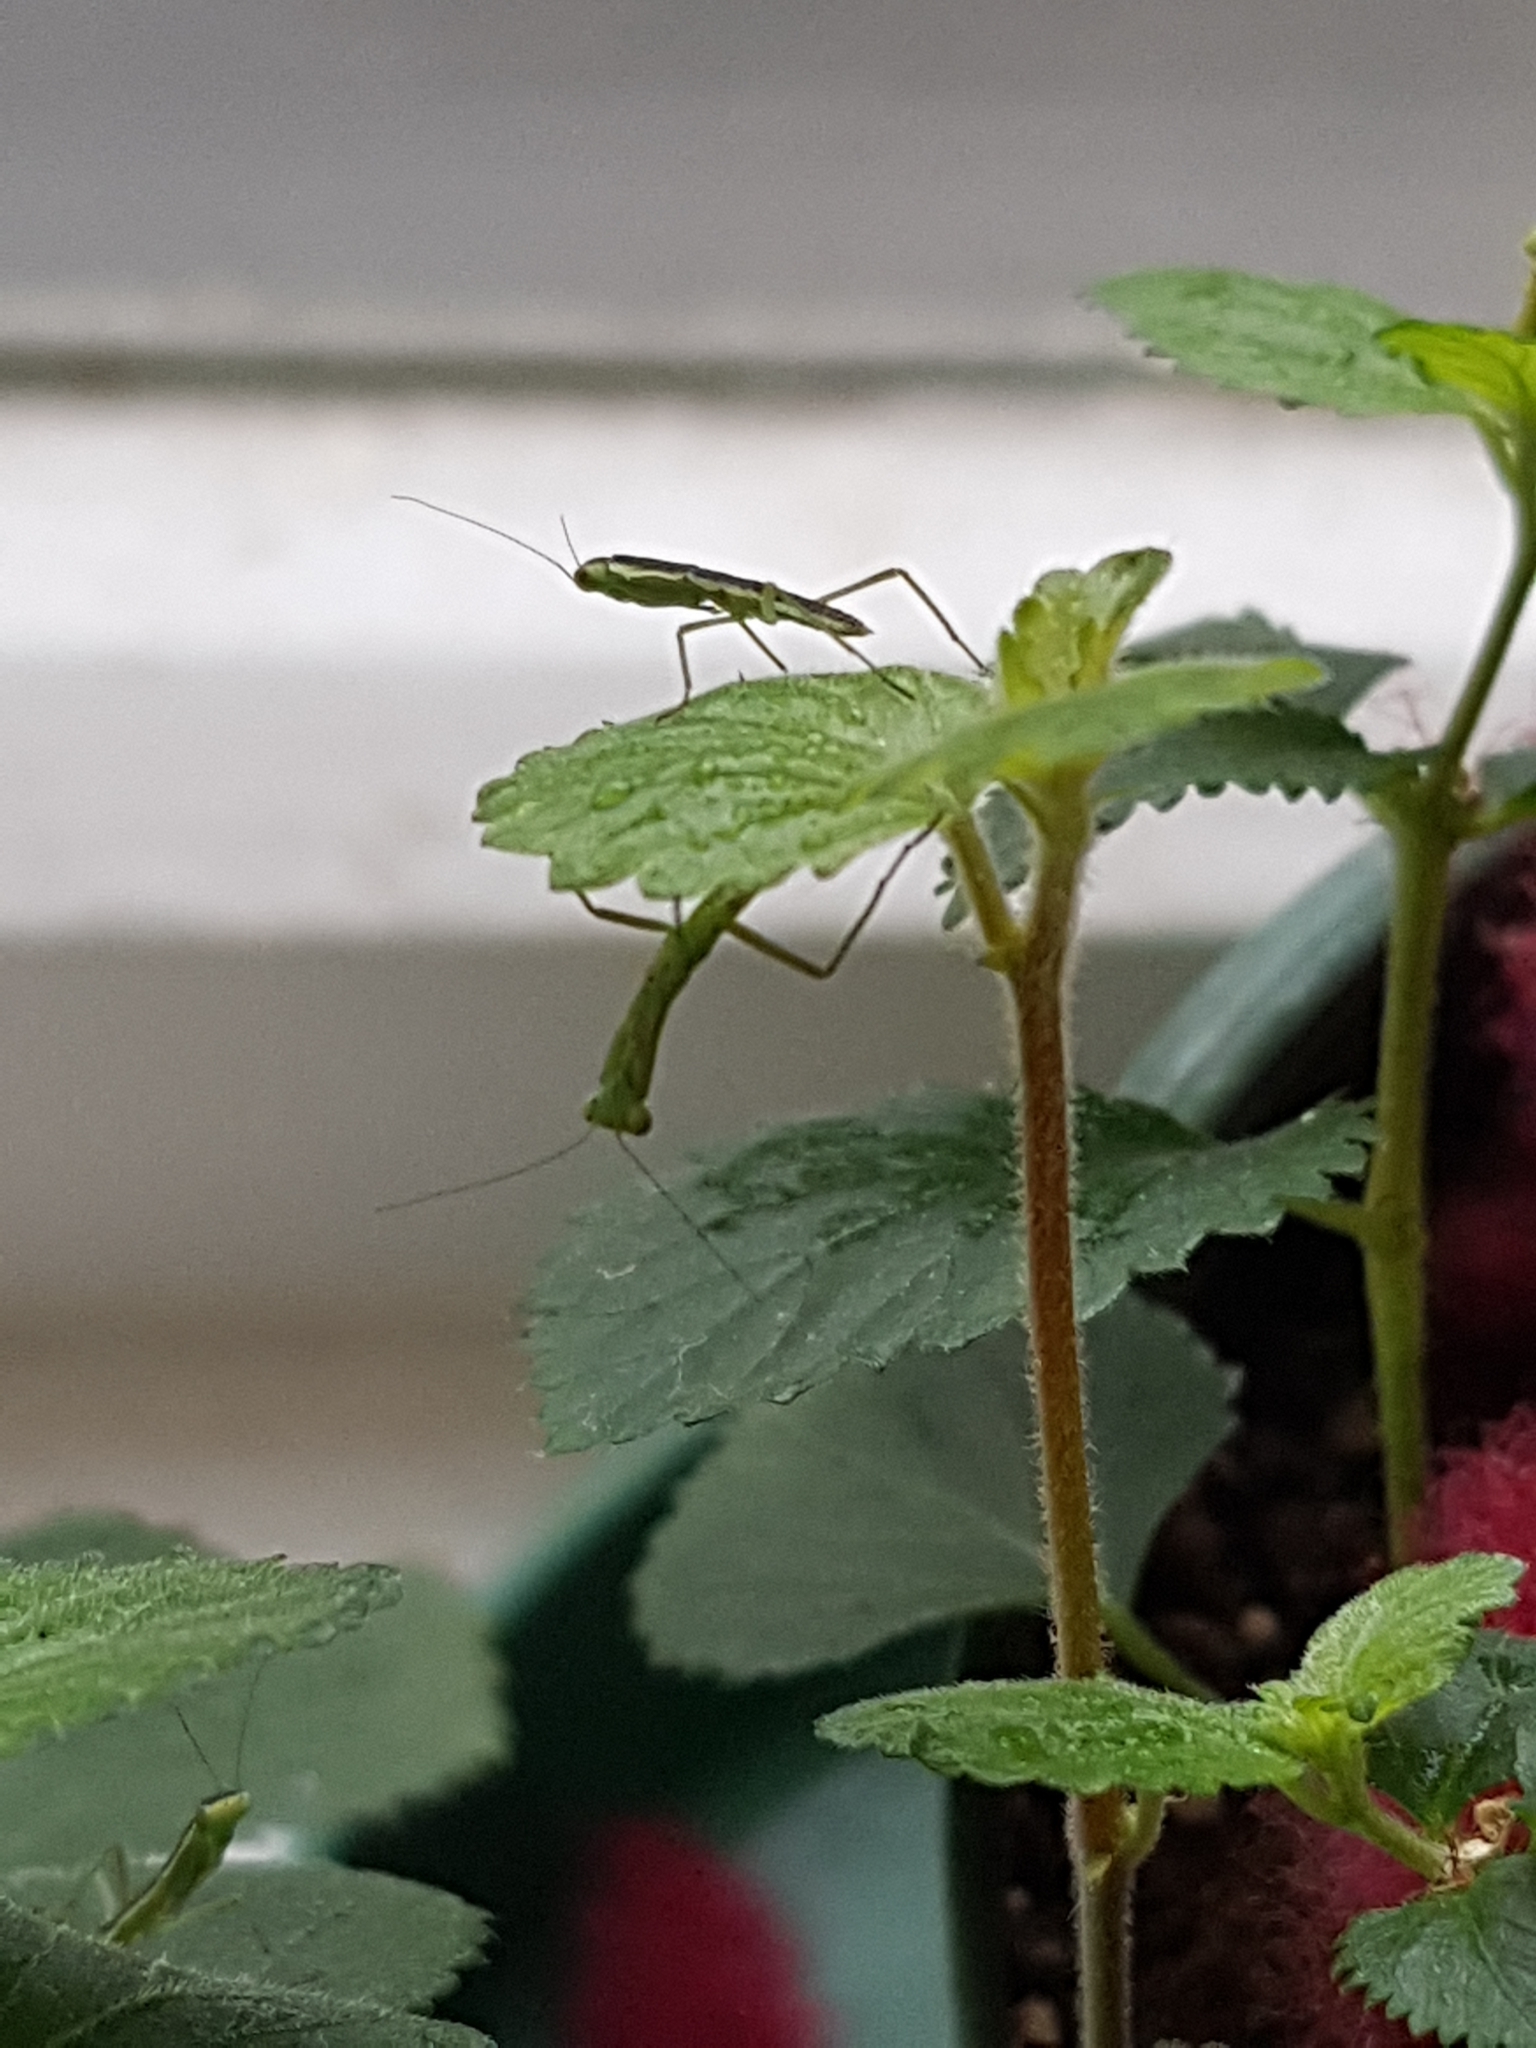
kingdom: Animalia
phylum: Arthropoda
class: Insecta
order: Mantodea
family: Mantidae
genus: Orthodera
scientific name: Orthodera novaezealandiae
